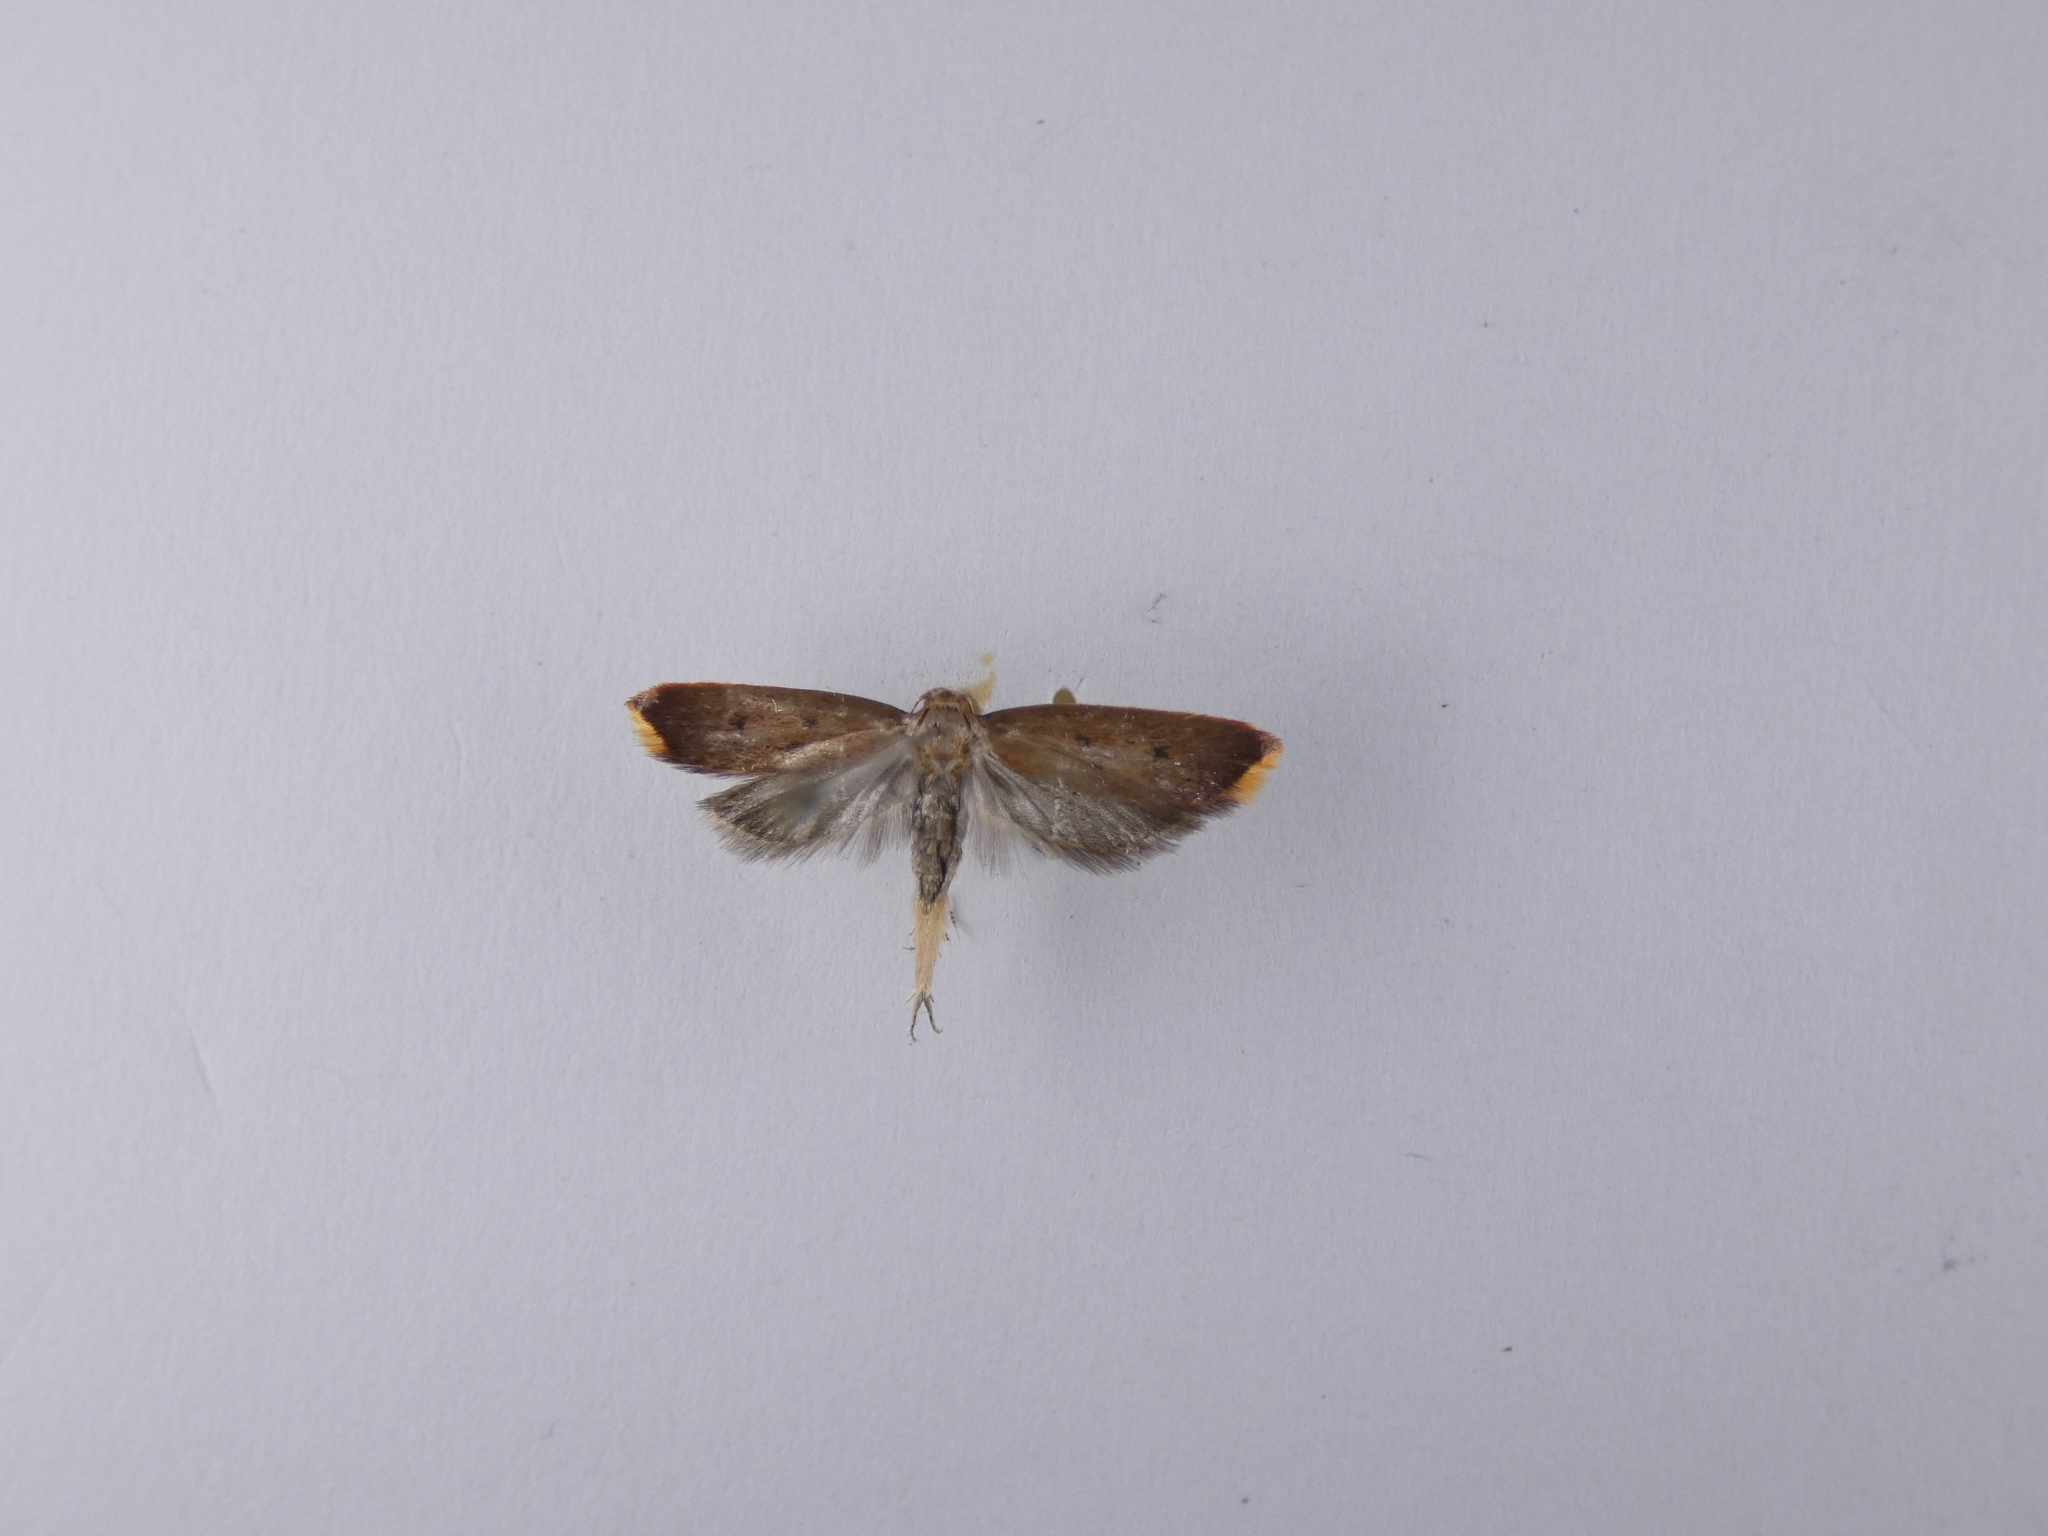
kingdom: Animalia
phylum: Arthropoda
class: Insecta
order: Lepidoptera
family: Oecophoridae
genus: Tachystola
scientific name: Tachystola acroxantha
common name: Ruddy streak
